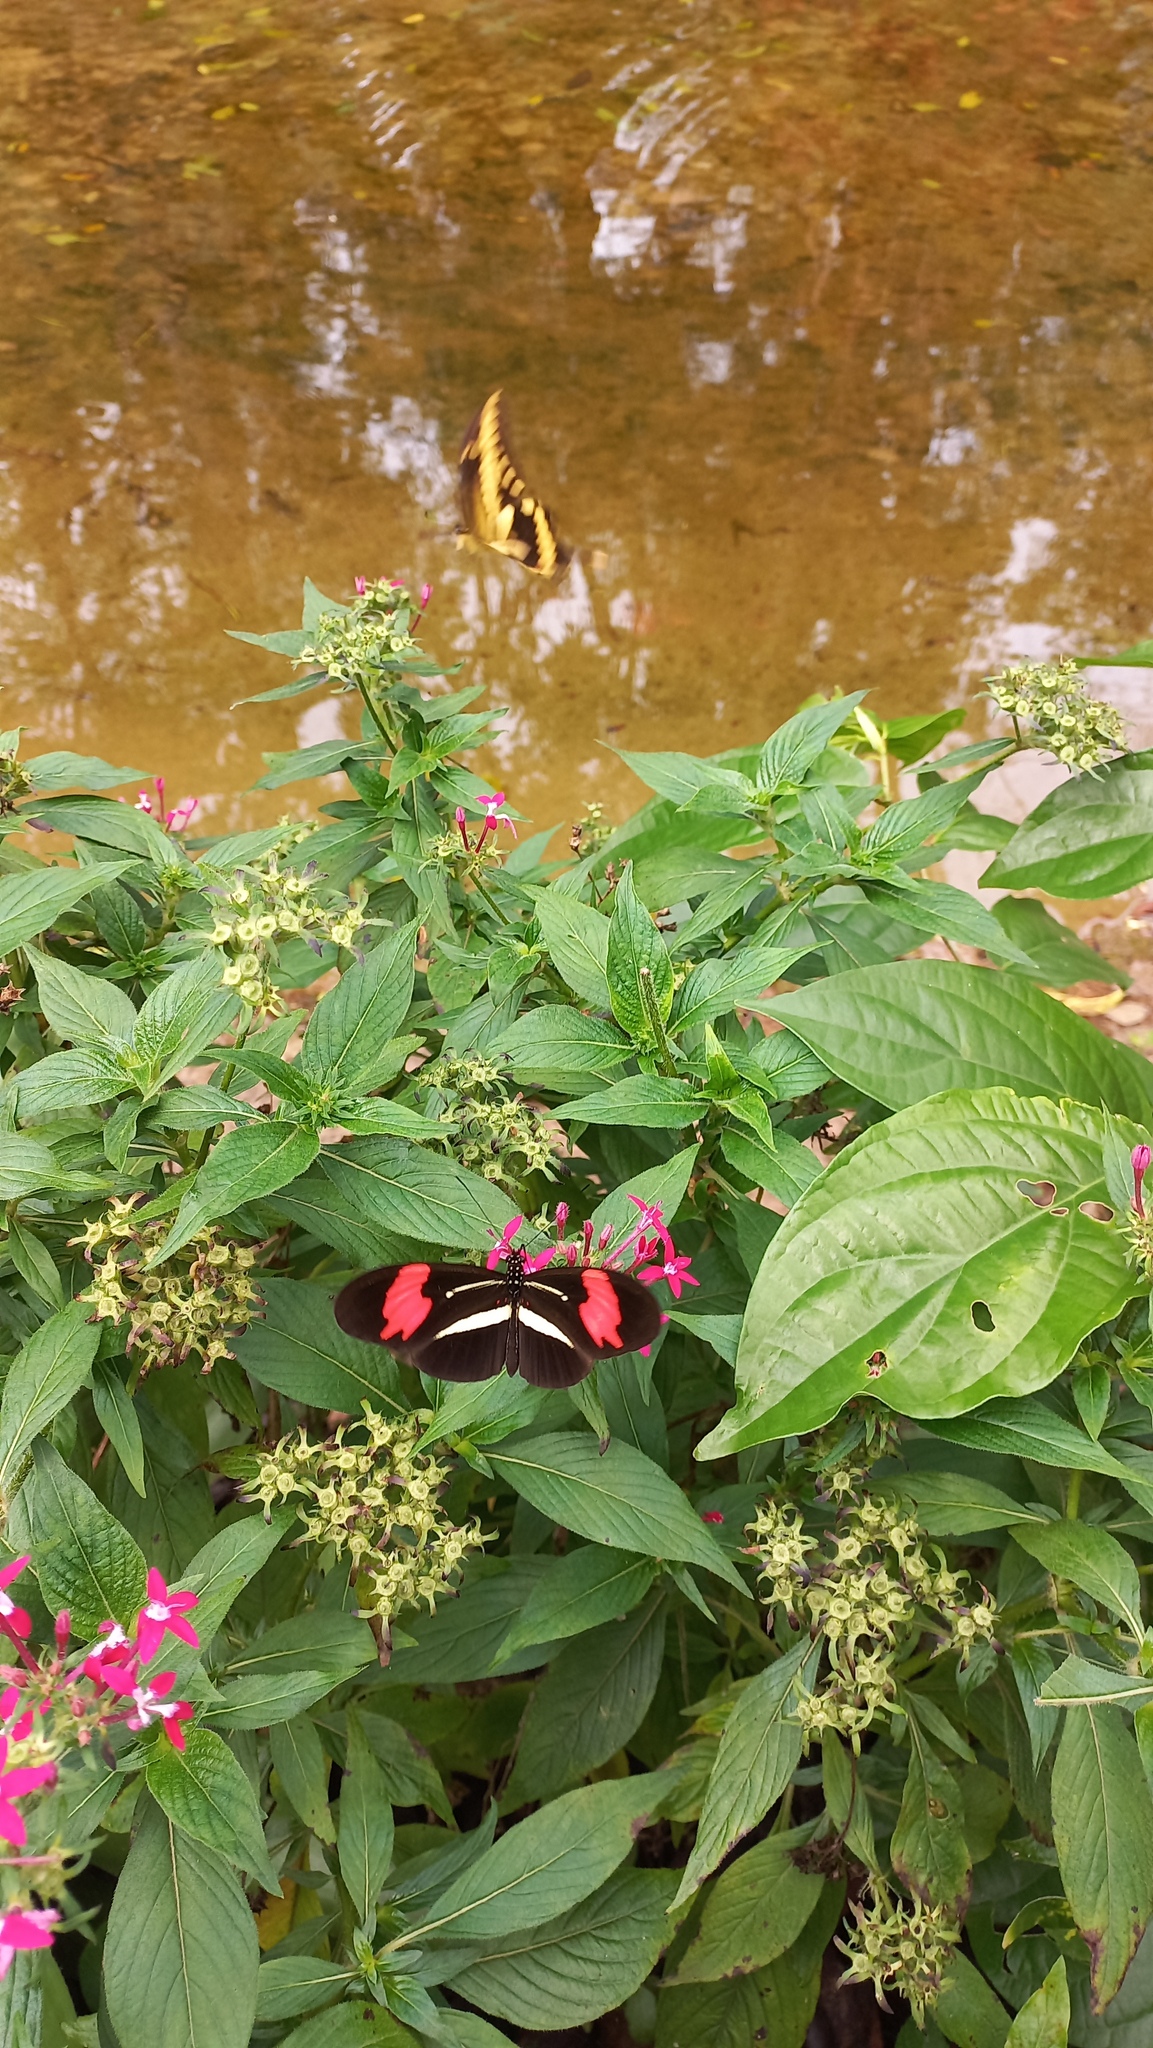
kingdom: Animalia
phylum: Arthropoda
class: Insecta
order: Lepidoptera
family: Nymphalidae
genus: Heliconius
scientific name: Heliconius erato
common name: Common patch longwing
